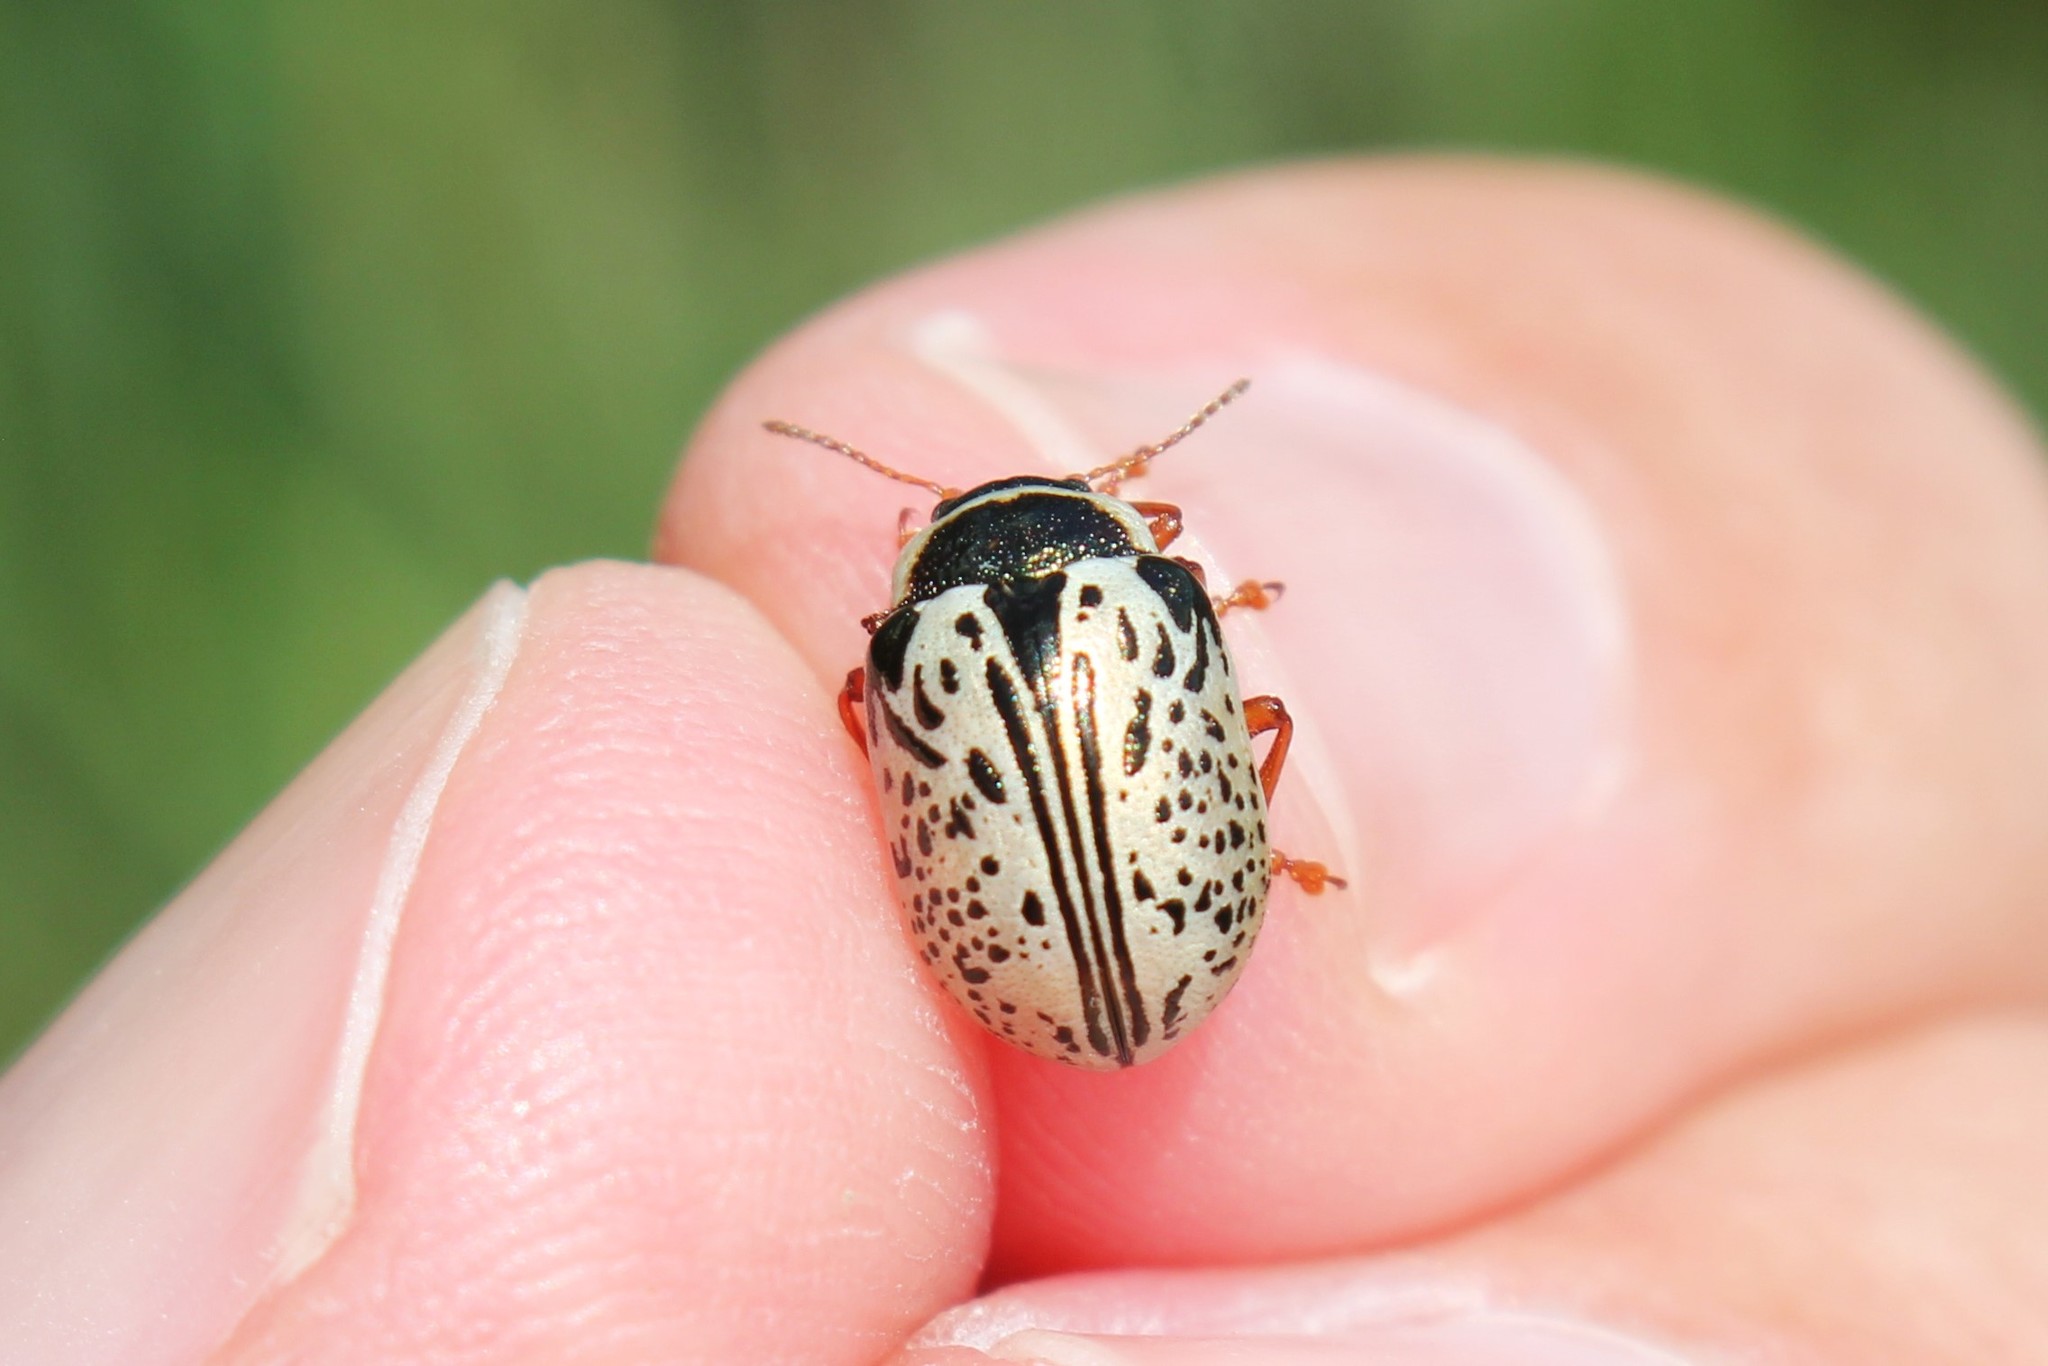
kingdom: Animalia
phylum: Arthropoda
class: Insecta
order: Coleoptera
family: Chrysomelidae
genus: Calligrapha
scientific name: Calligrapha multipunctata
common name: Common willow calligrapher beetle
